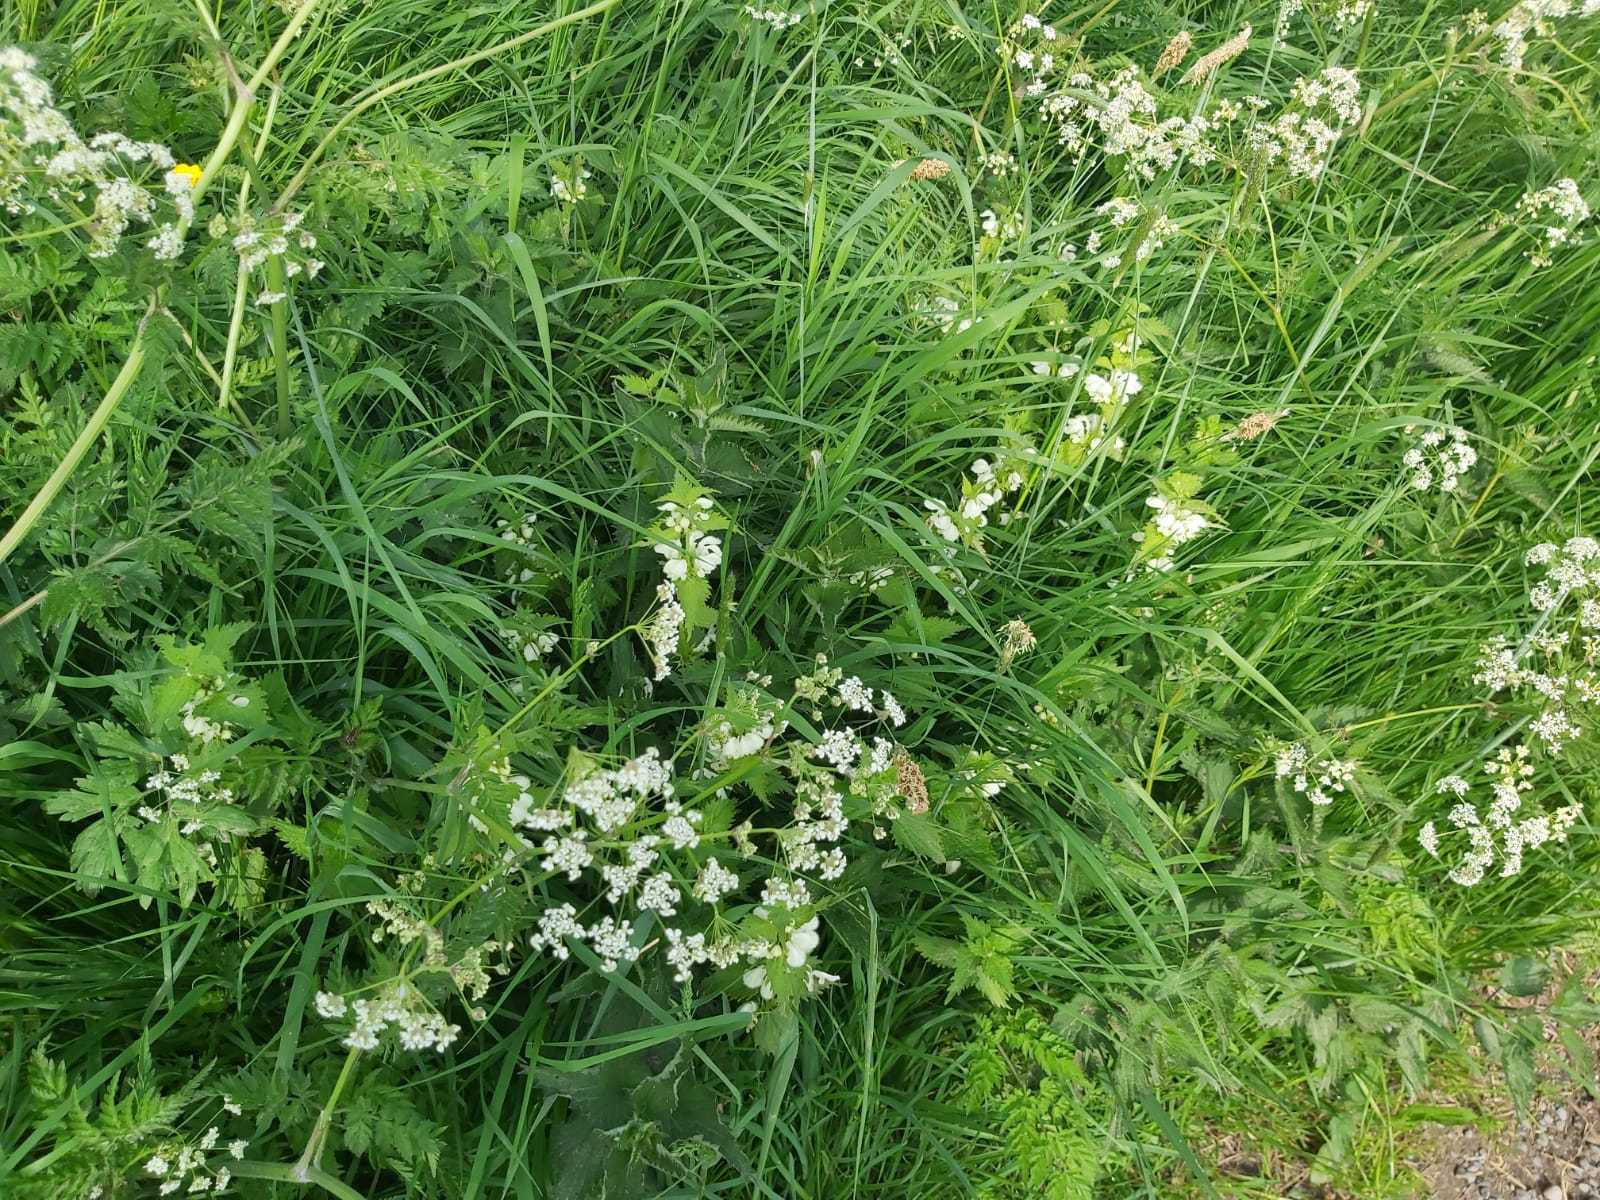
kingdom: Plantae
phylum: Tracheophyta
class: Magnoliopsida
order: Apiales
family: Apiaceae
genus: Anthriscus
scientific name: Anthriscus sylvestris
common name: Cow parsley
